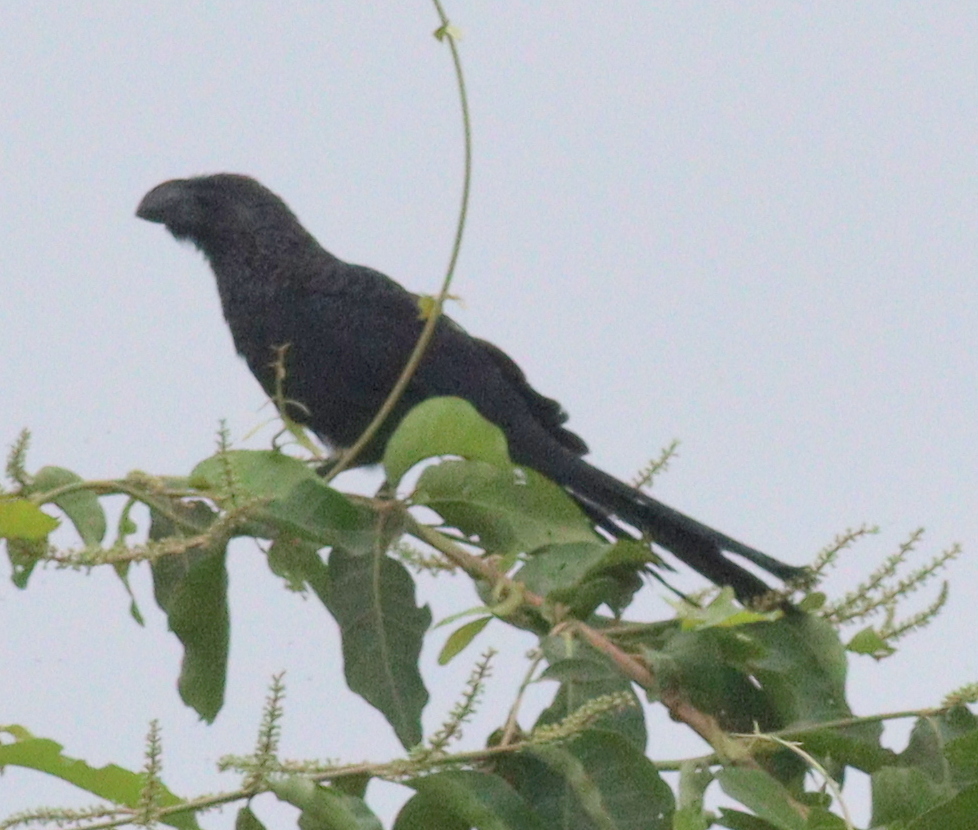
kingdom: Animalia
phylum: Chordata
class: Aves
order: Cuculiformes
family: Cuculidae
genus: Crotophaga
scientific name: Crotophaga ani
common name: Smooth-billed ani
